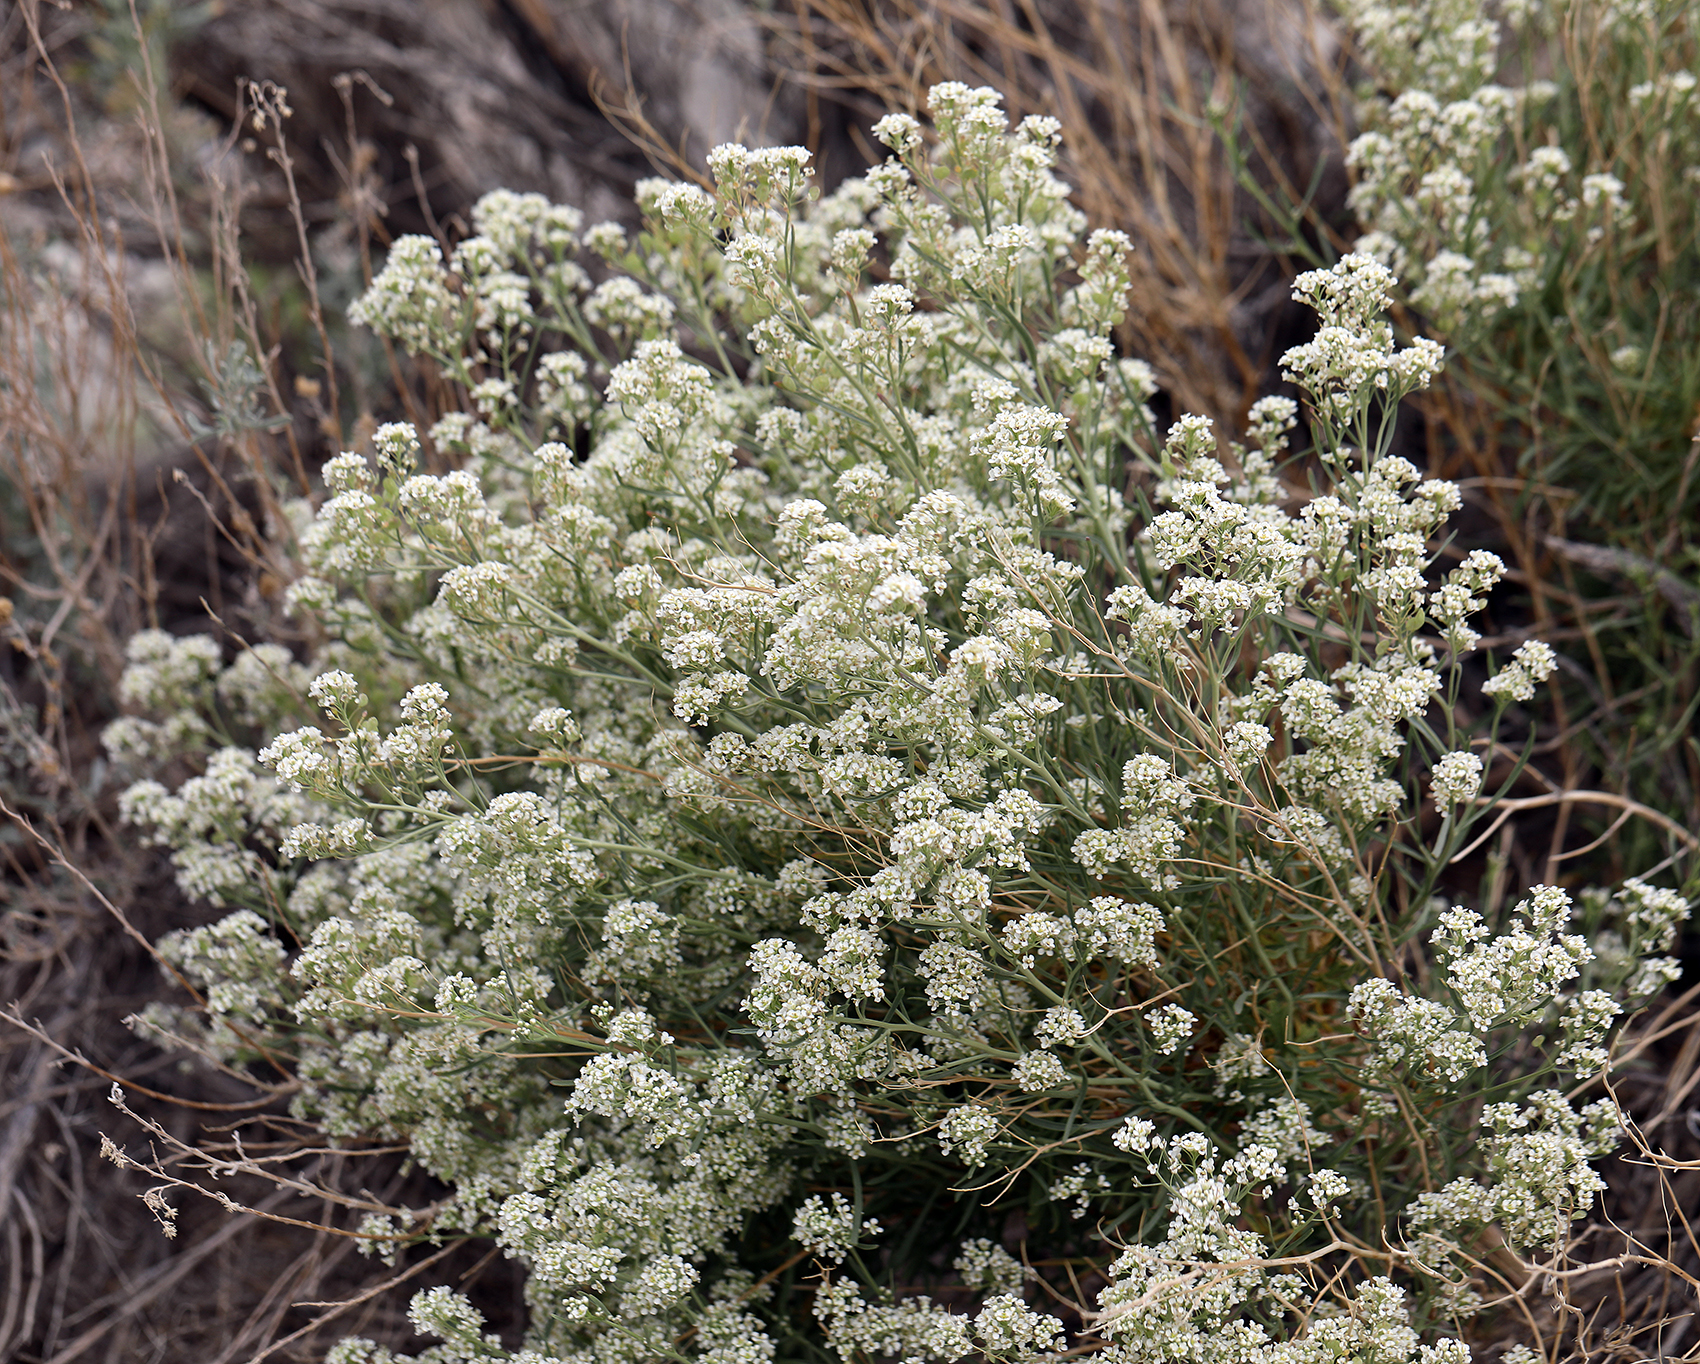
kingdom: Plantae
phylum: Tracheophyta
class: Magnoliopsida
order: Brassicales
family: Brassicaceae
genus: Lepidium
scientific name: Lepidium fremontii
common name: Fremont's pepperwort
